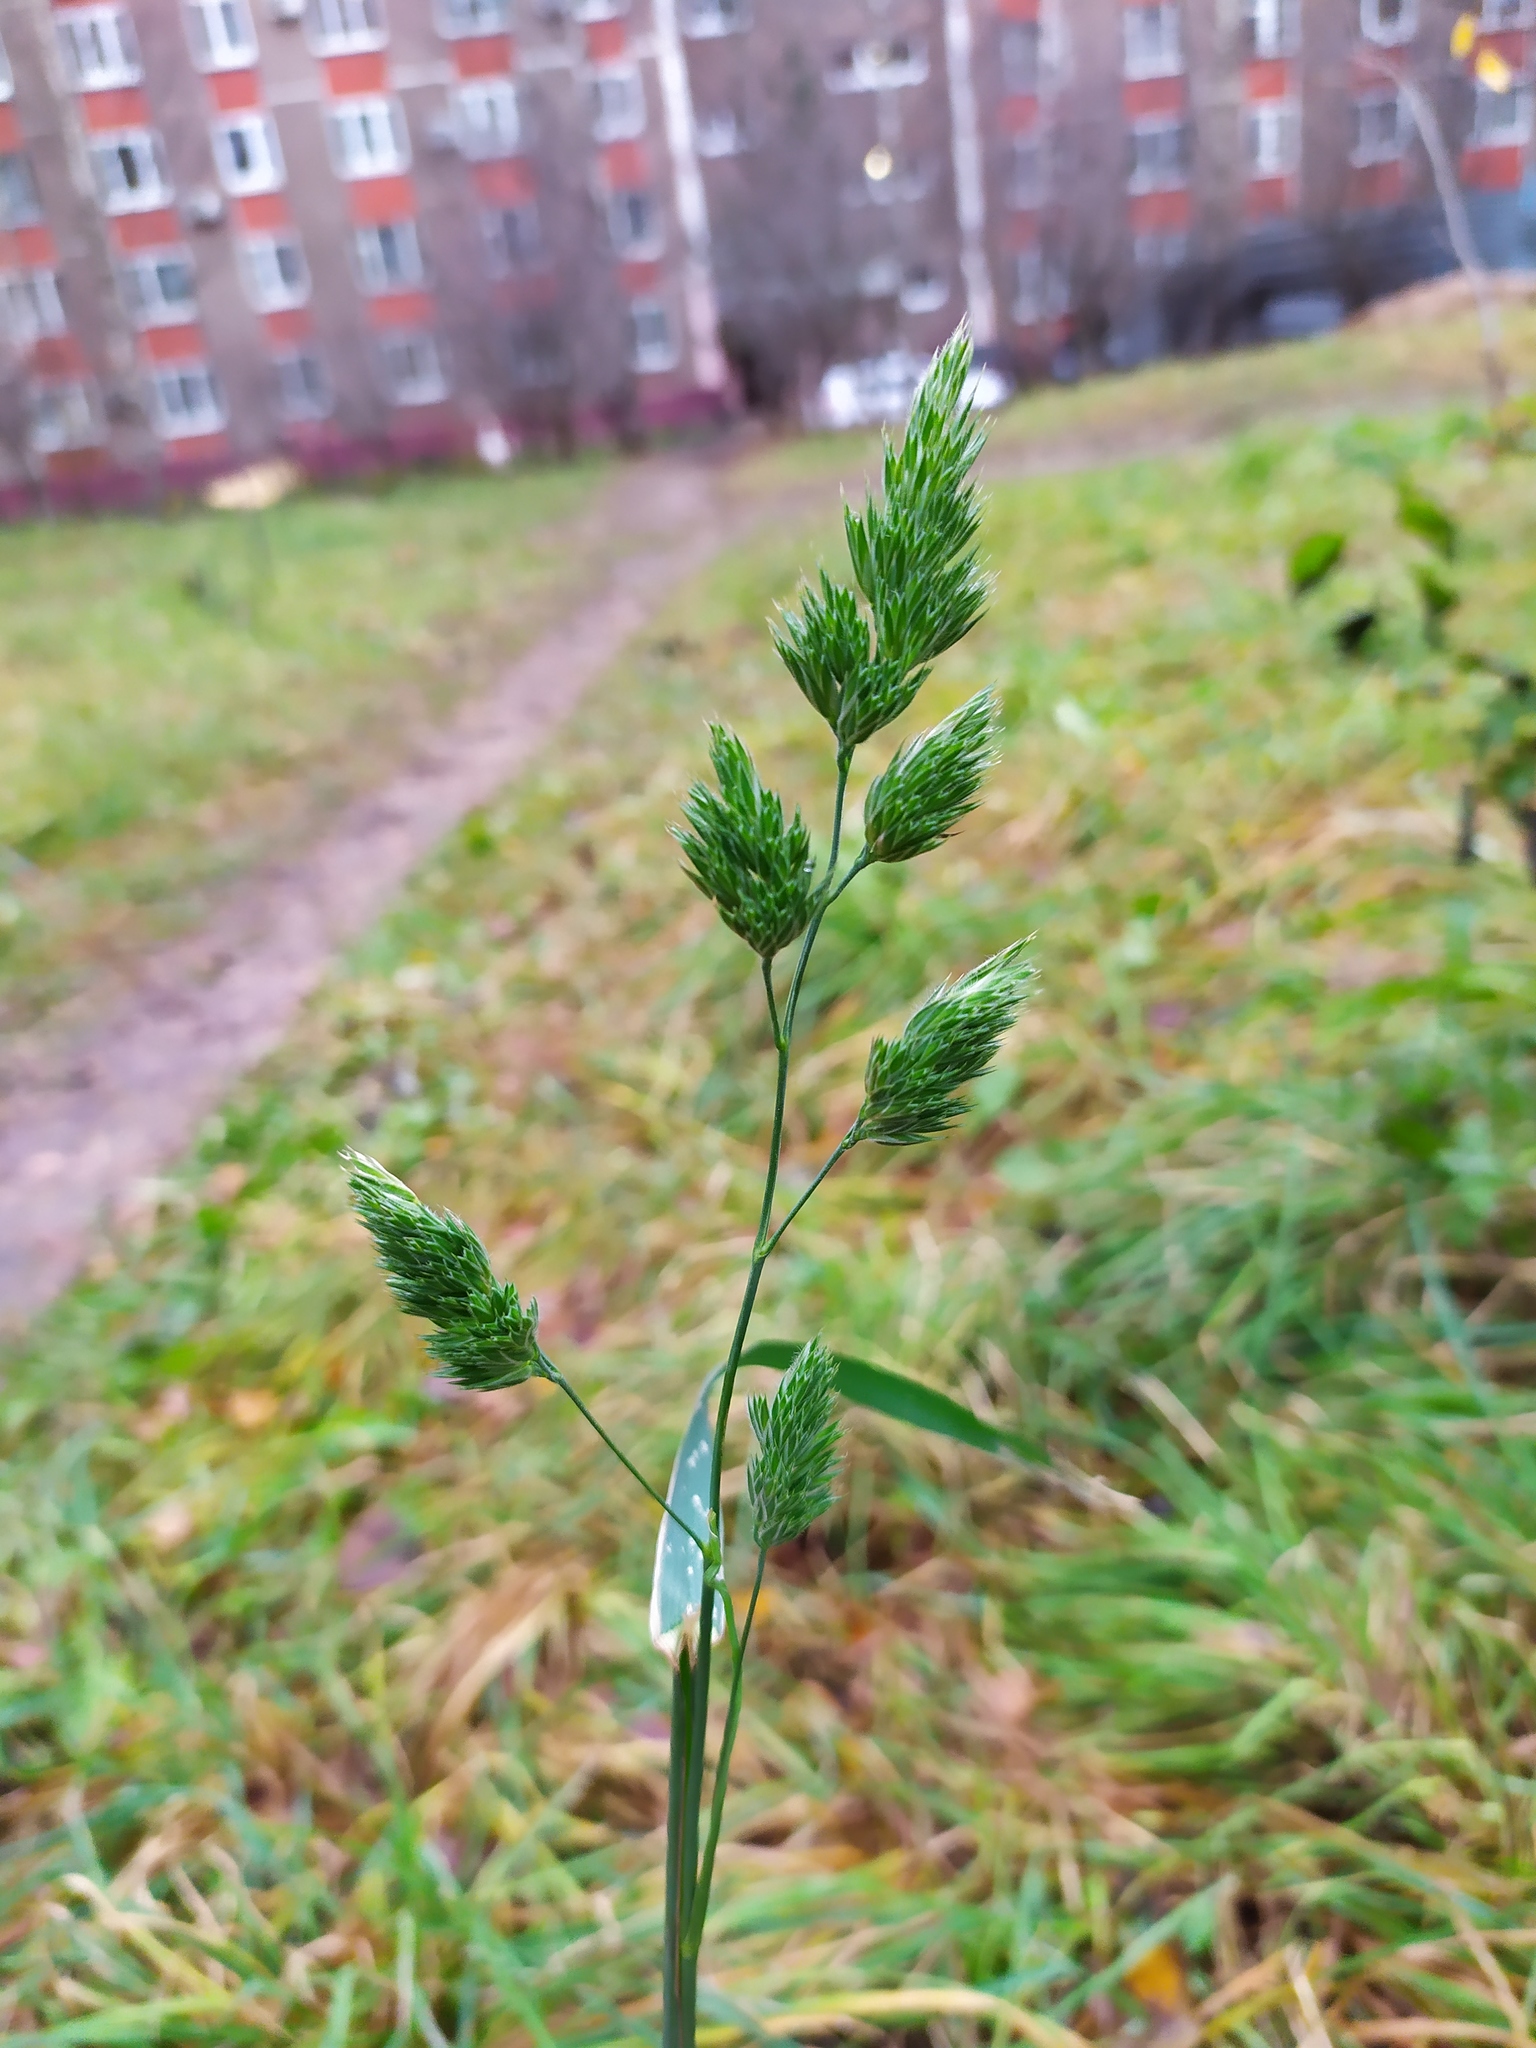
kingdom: Plantae
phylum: Tracheophyta
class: Liliopsida
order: Poales
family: Poaceae
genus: Dactylis
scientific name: Dactylis glomerata
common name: Orchardgrass
